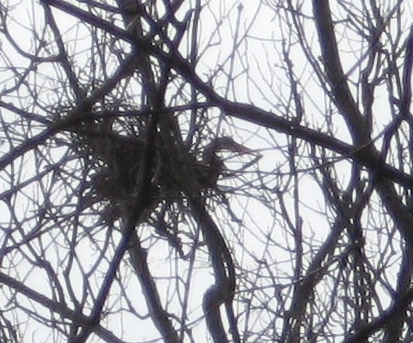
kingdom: Animalia
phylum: Chordata
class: Aves
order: Pelecaniformes
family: Ardeidae
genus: Ardea
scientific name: Ardea herodias
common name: Great blue heron
